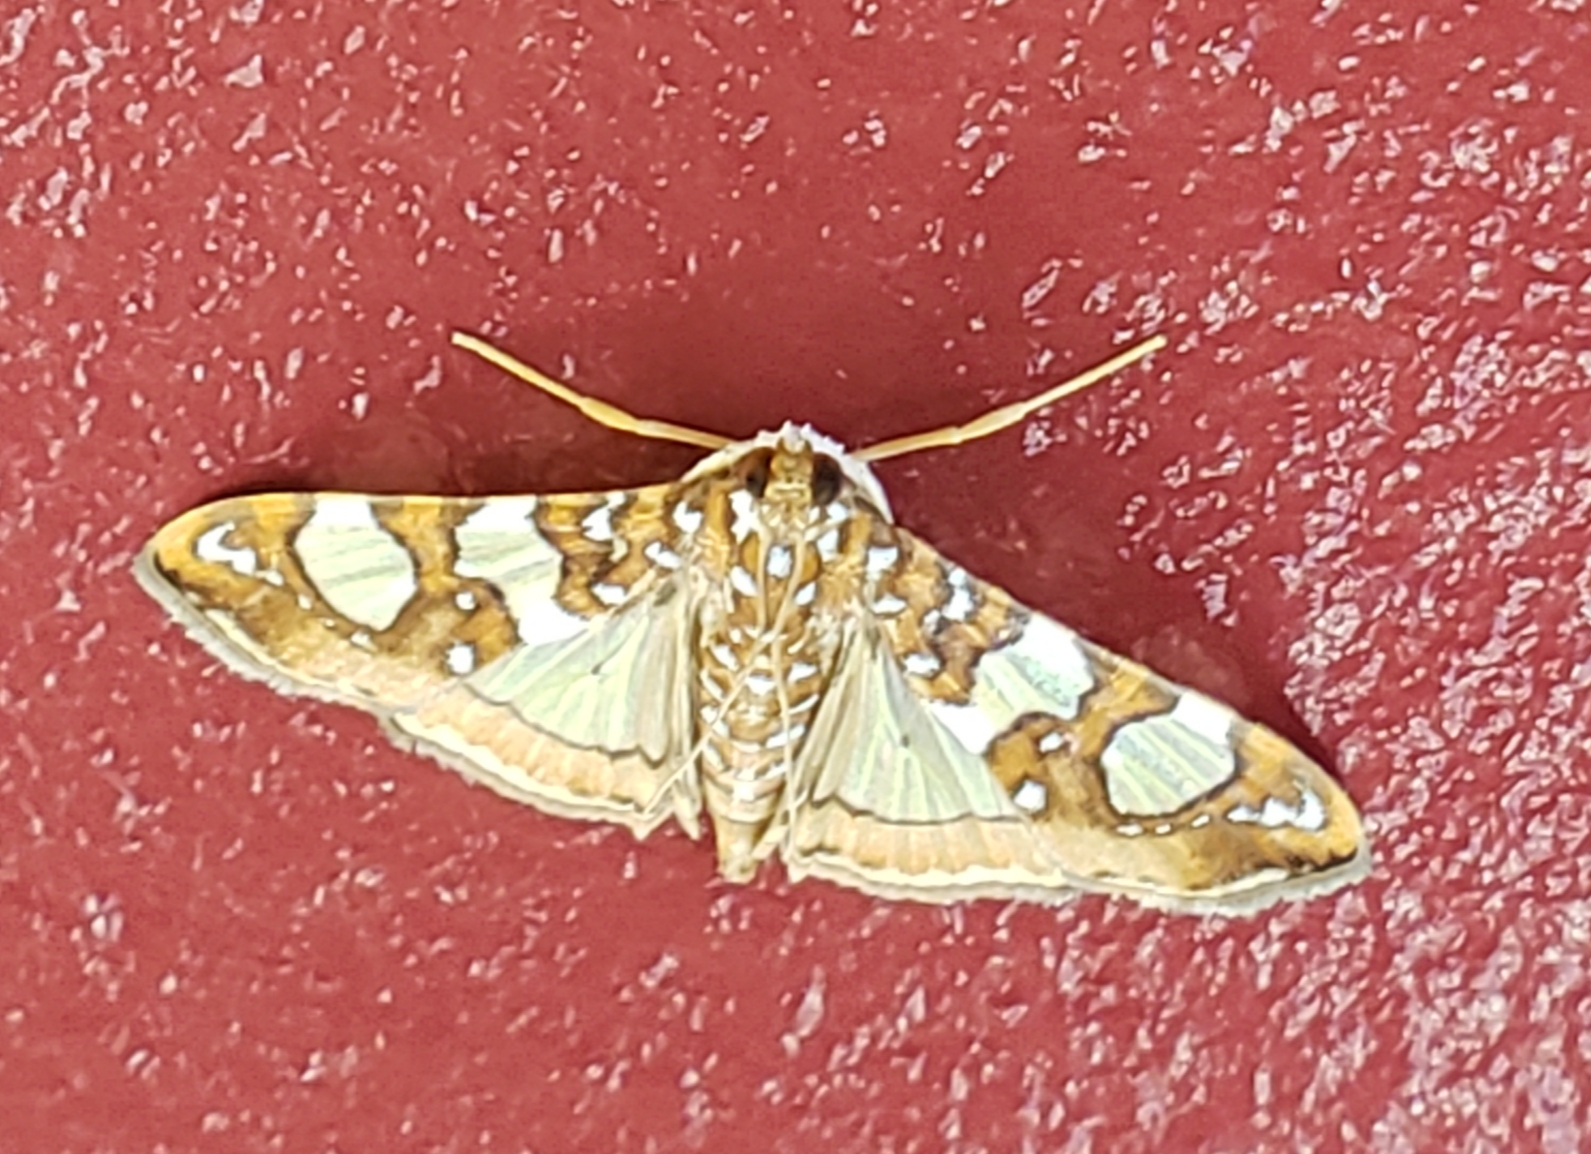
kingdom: Animalia
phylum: Arthropoda
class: Insecta
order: Lepidoptera
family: Crambidae
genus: Glyphodes
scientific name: Glyphodes sibillalis
